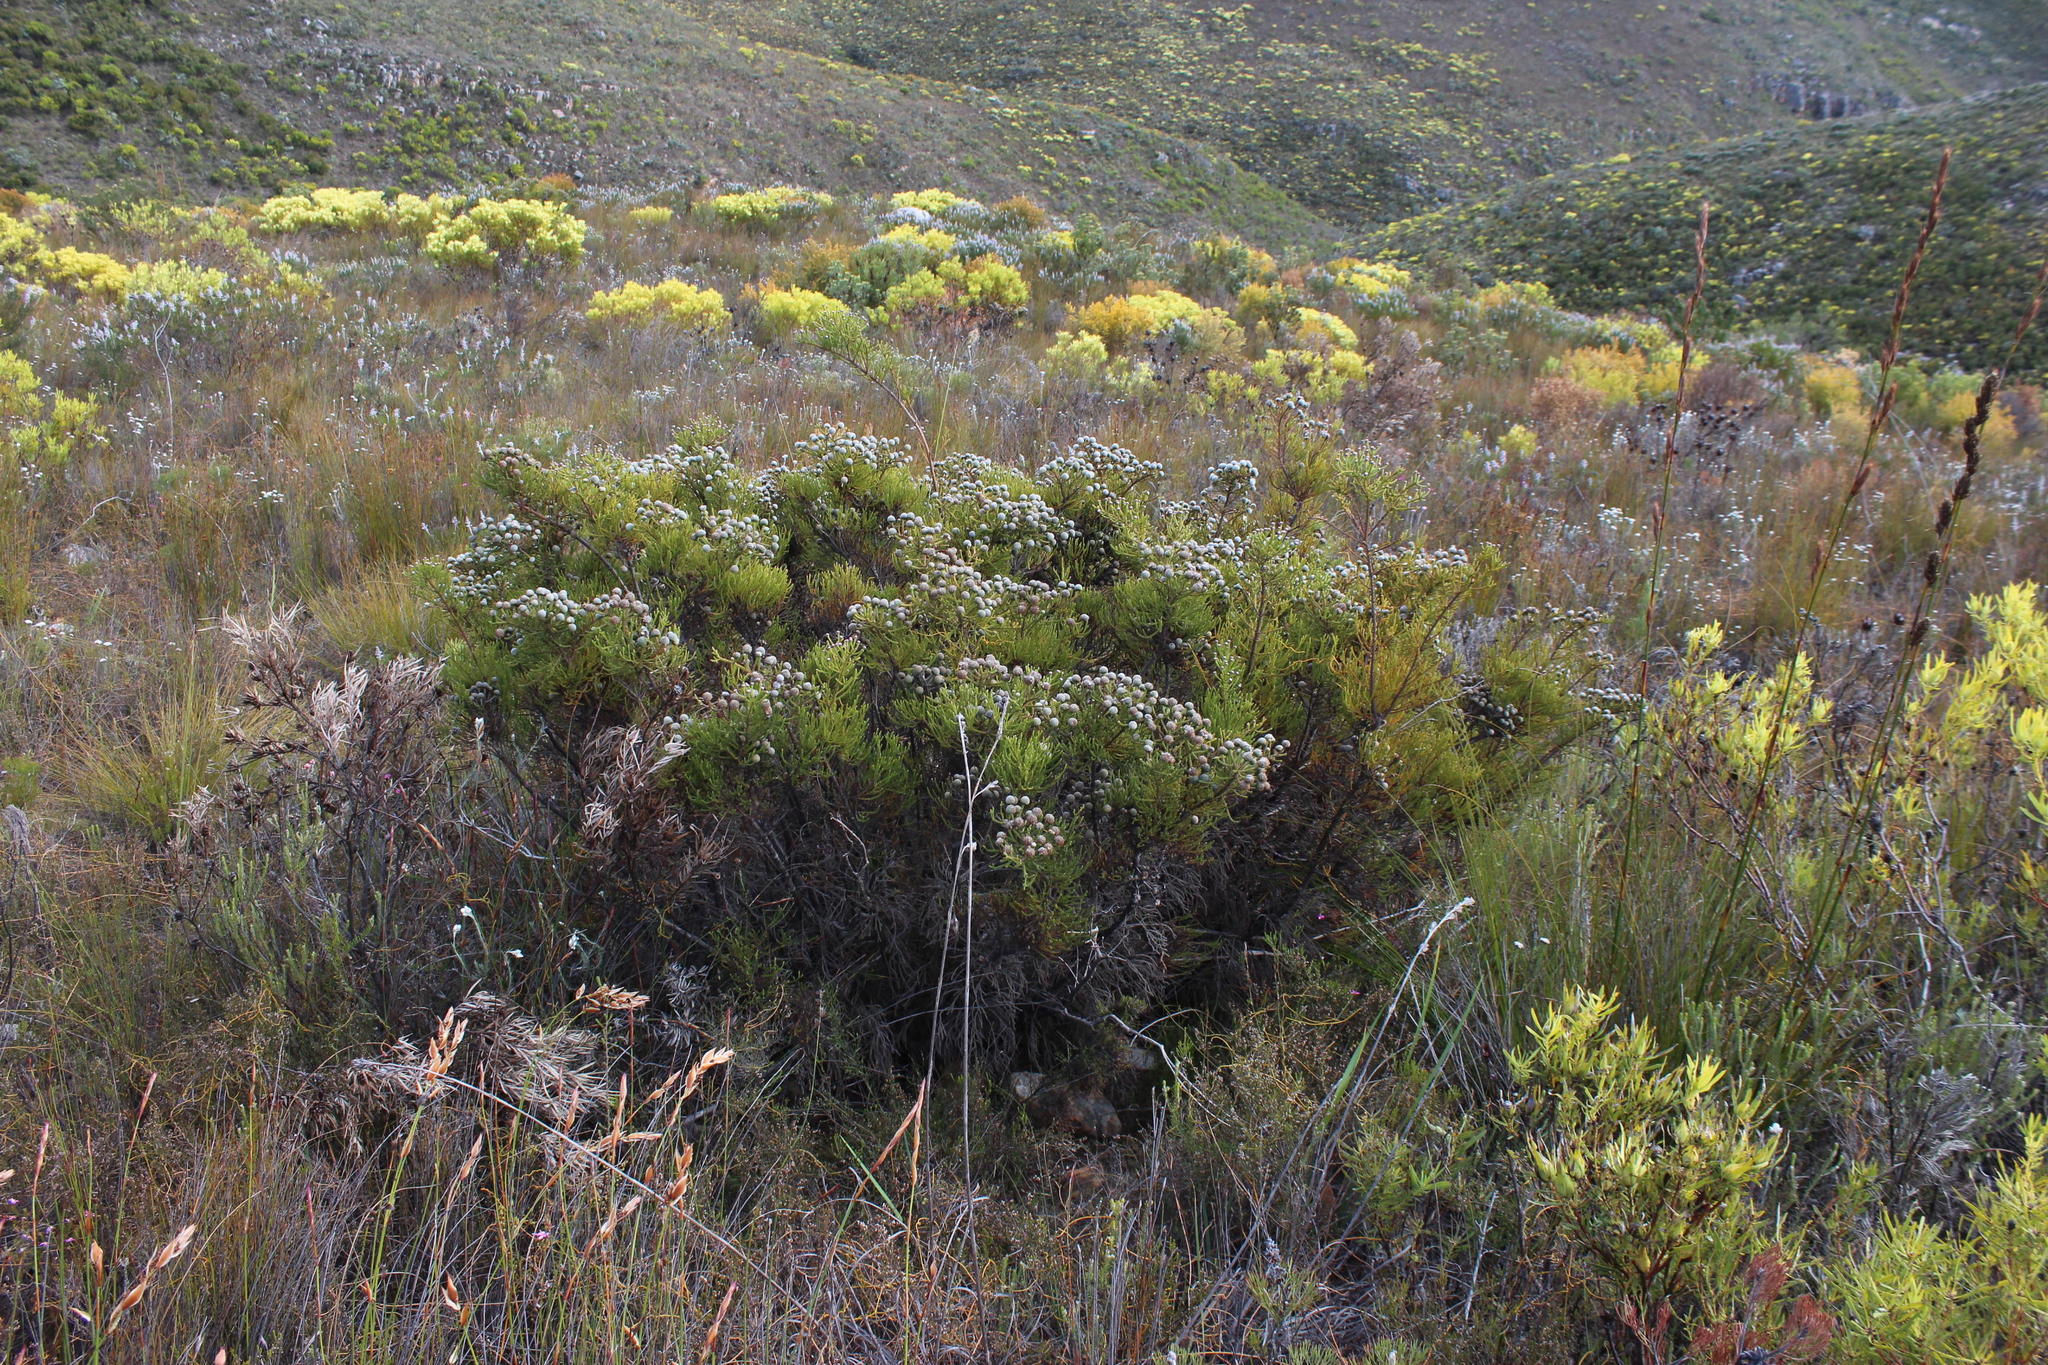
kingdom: Plantae
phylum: Tracheophyta
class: Magnoliopsida
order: Bruniales
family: Bruniaceae
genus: Brunia
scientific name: Brunia noduliflora
